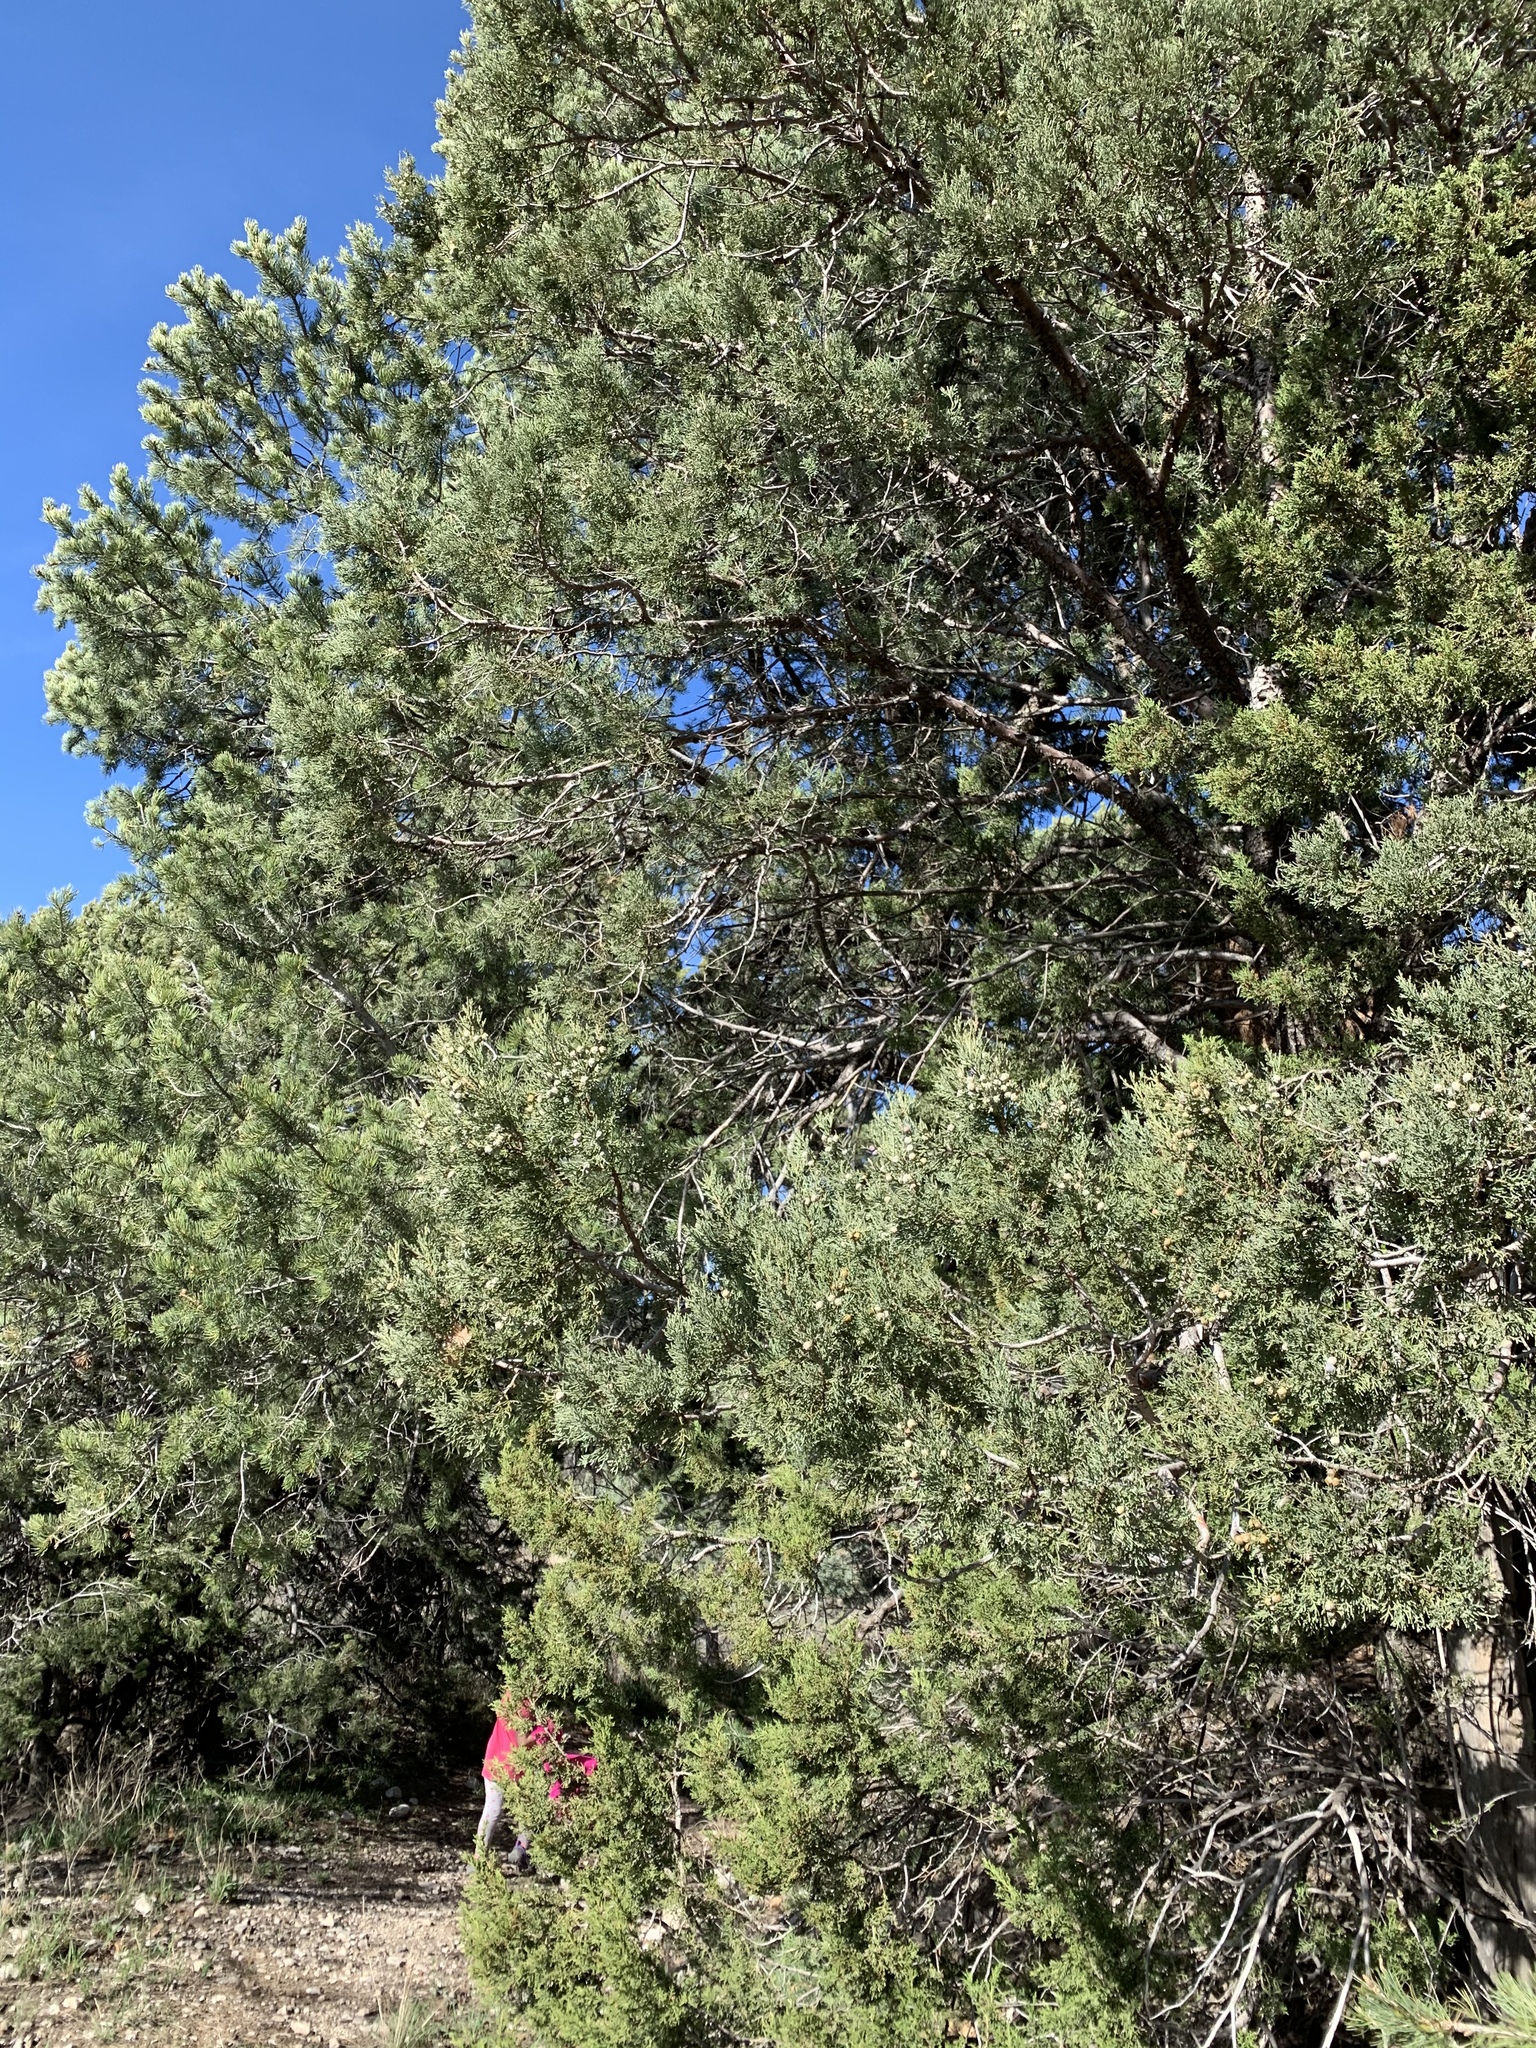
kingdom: Plantae
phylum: Tracheophyta
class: Pinopsida
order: Pinales
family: Pinaceae
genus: Pinus
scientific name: Pinus edulis
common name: Colorado pinyon
